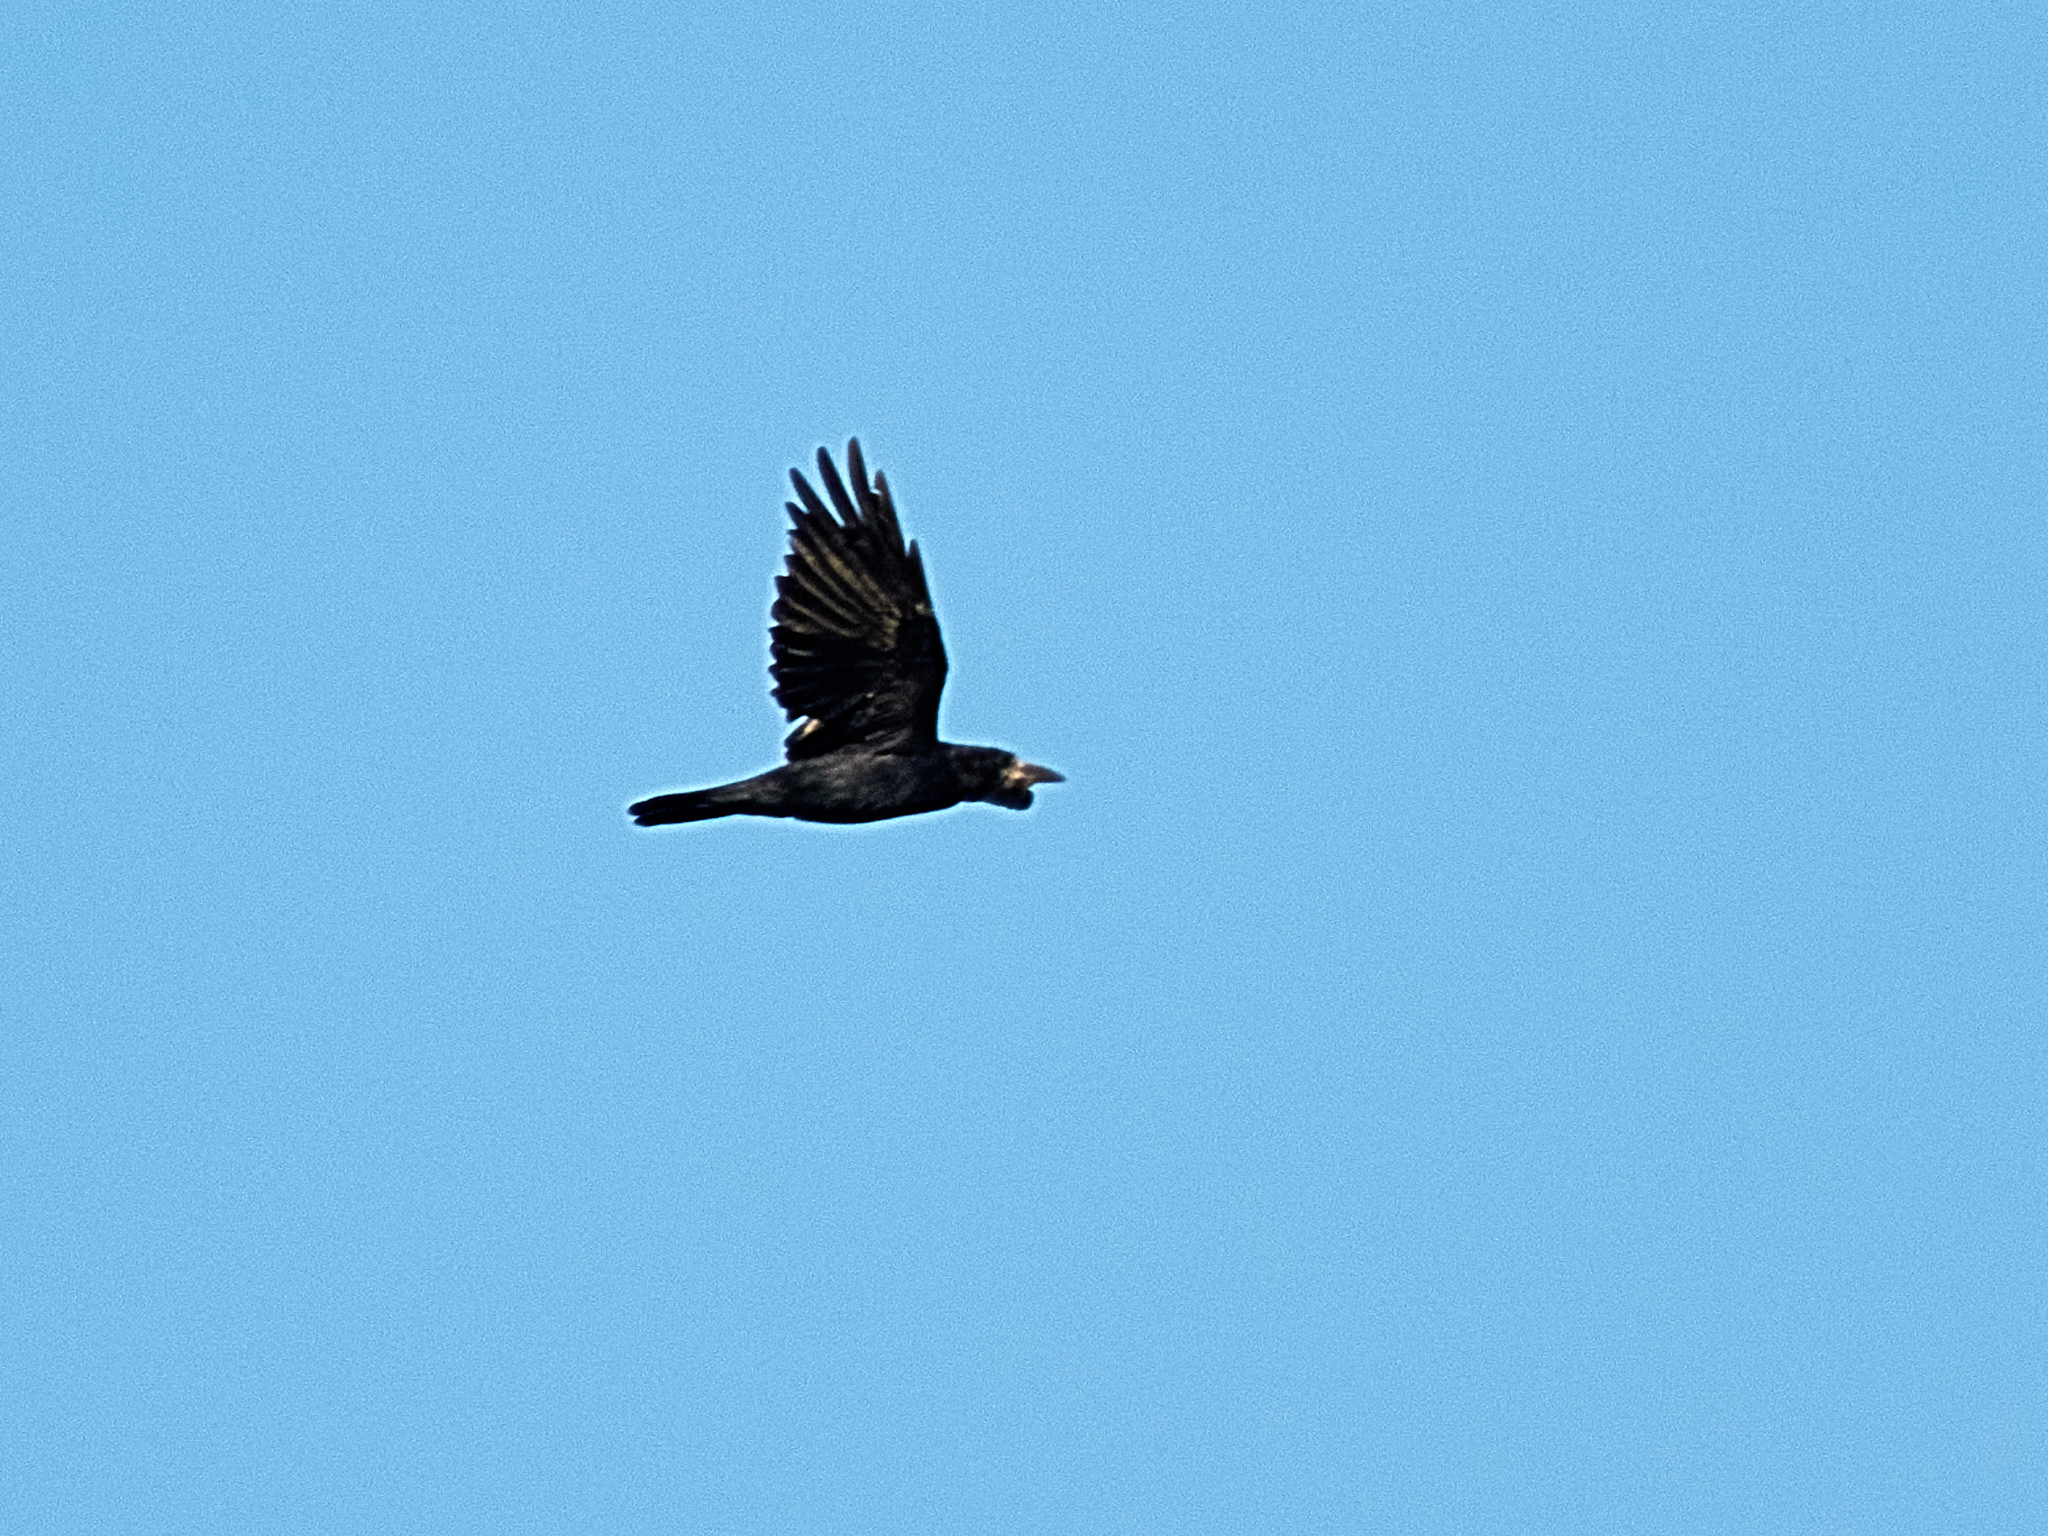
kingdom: Animalia
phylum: Chordata
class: Aves
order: Passeriformes
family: Corvidae
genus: Corvus
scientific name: Corvus frugilegus
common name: Rook
